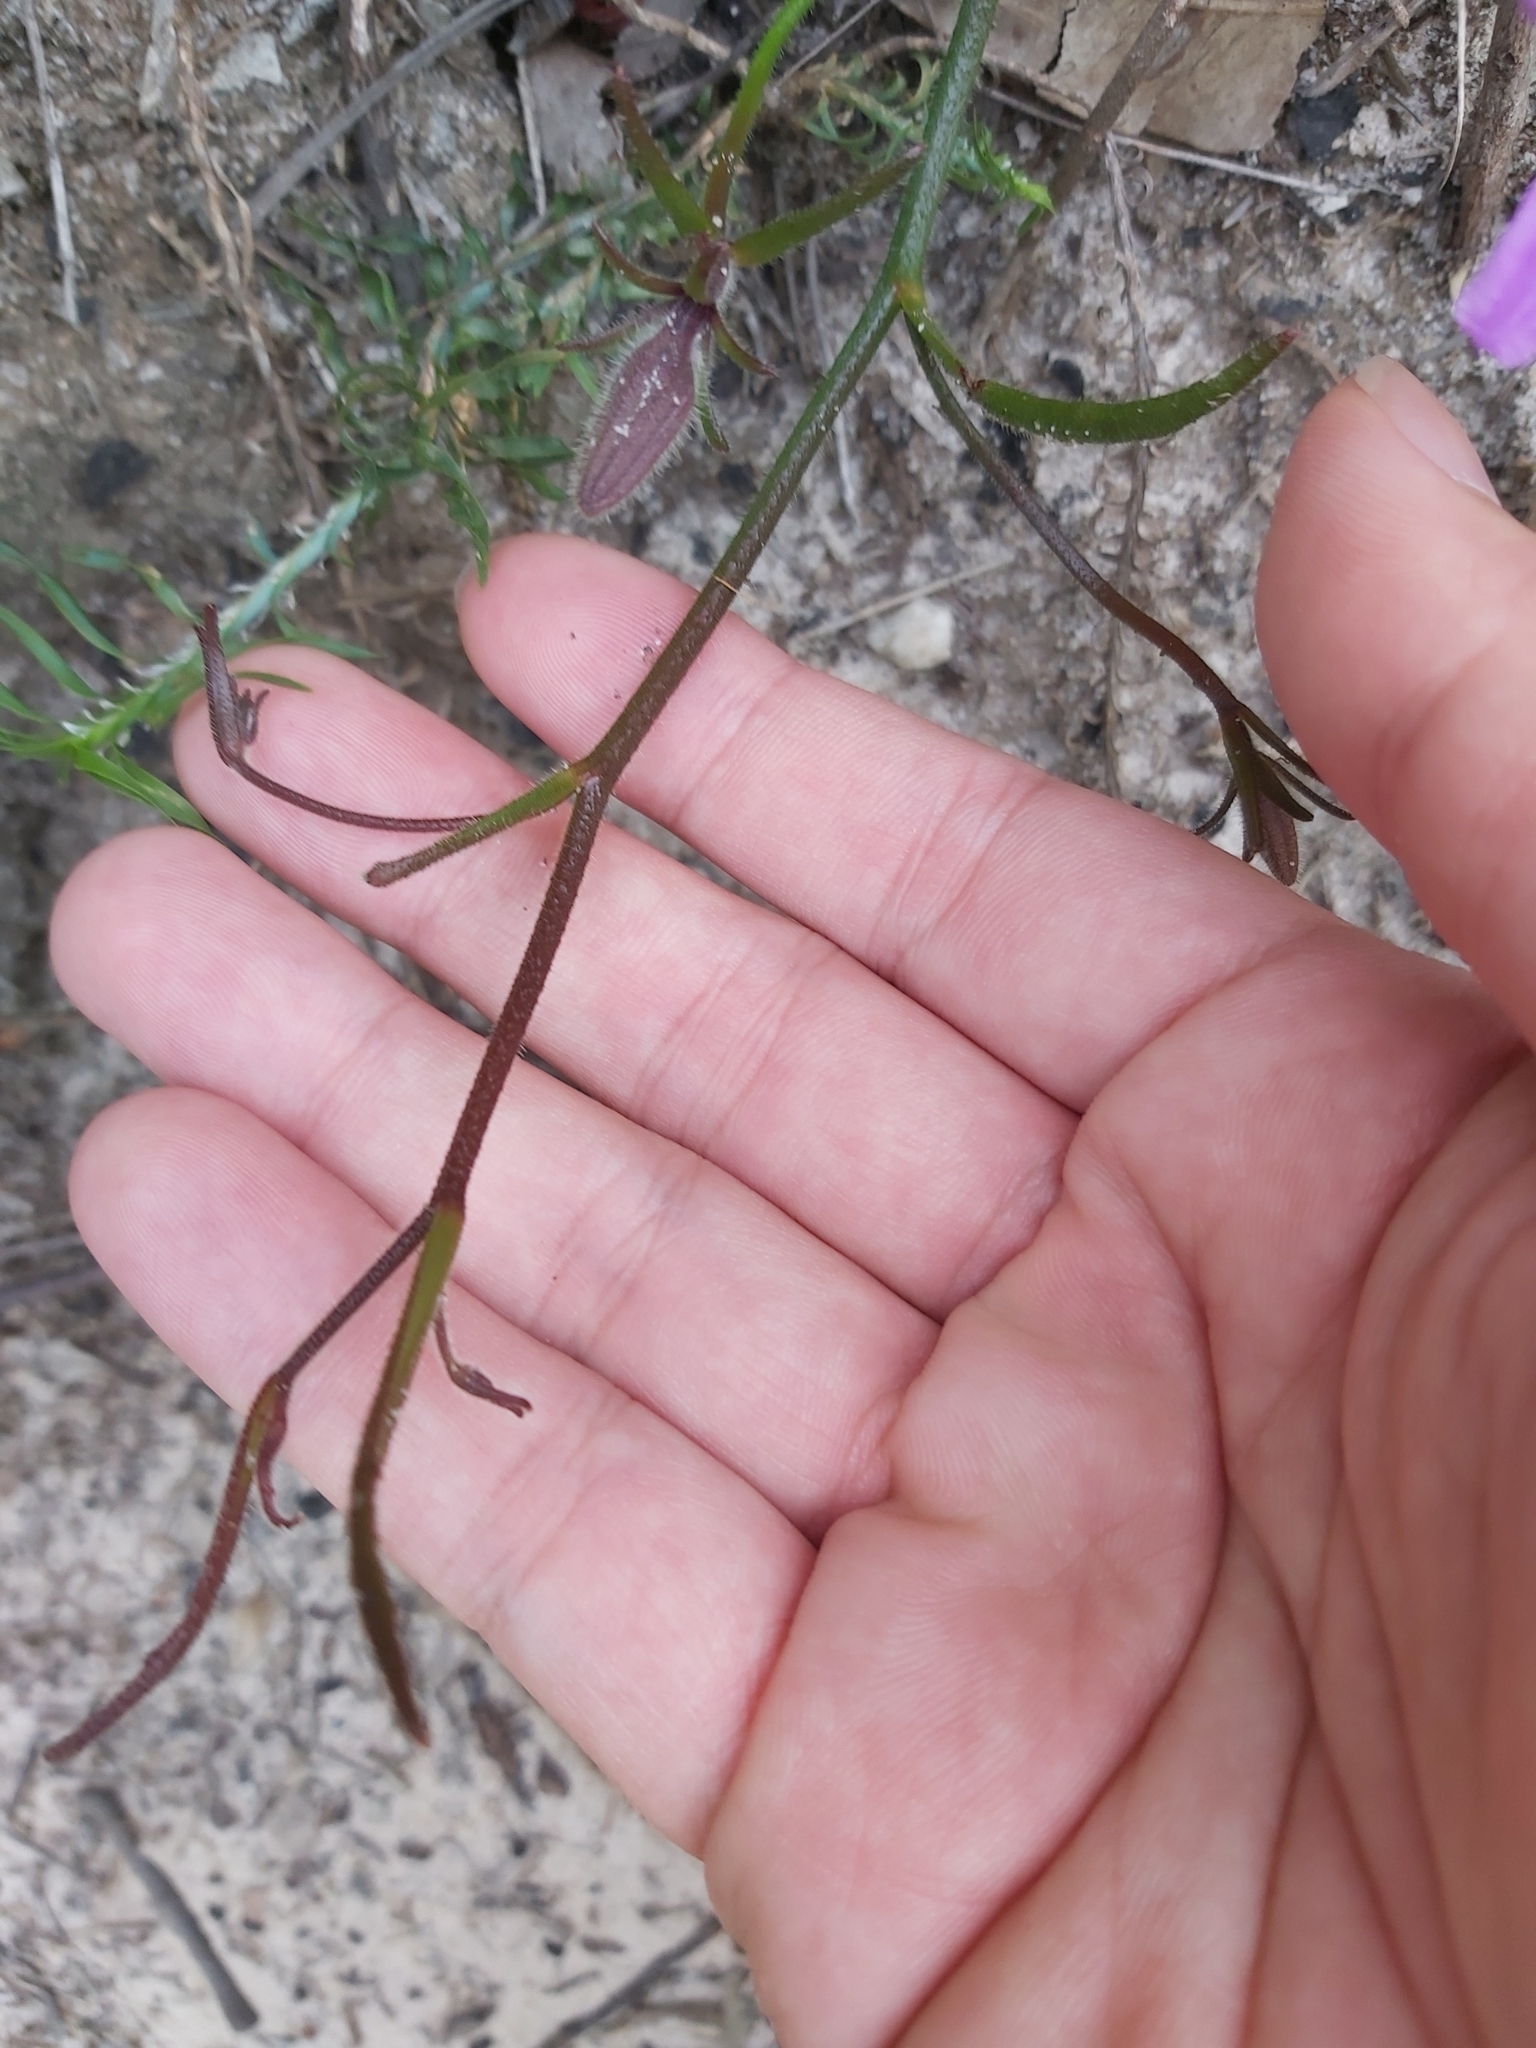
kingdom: Plantae
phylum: Tracheophyta
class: Magnoliopsida
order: Asterales
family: Goodeniaceae
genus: Scaevola
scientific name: Scaevola ramosissima
